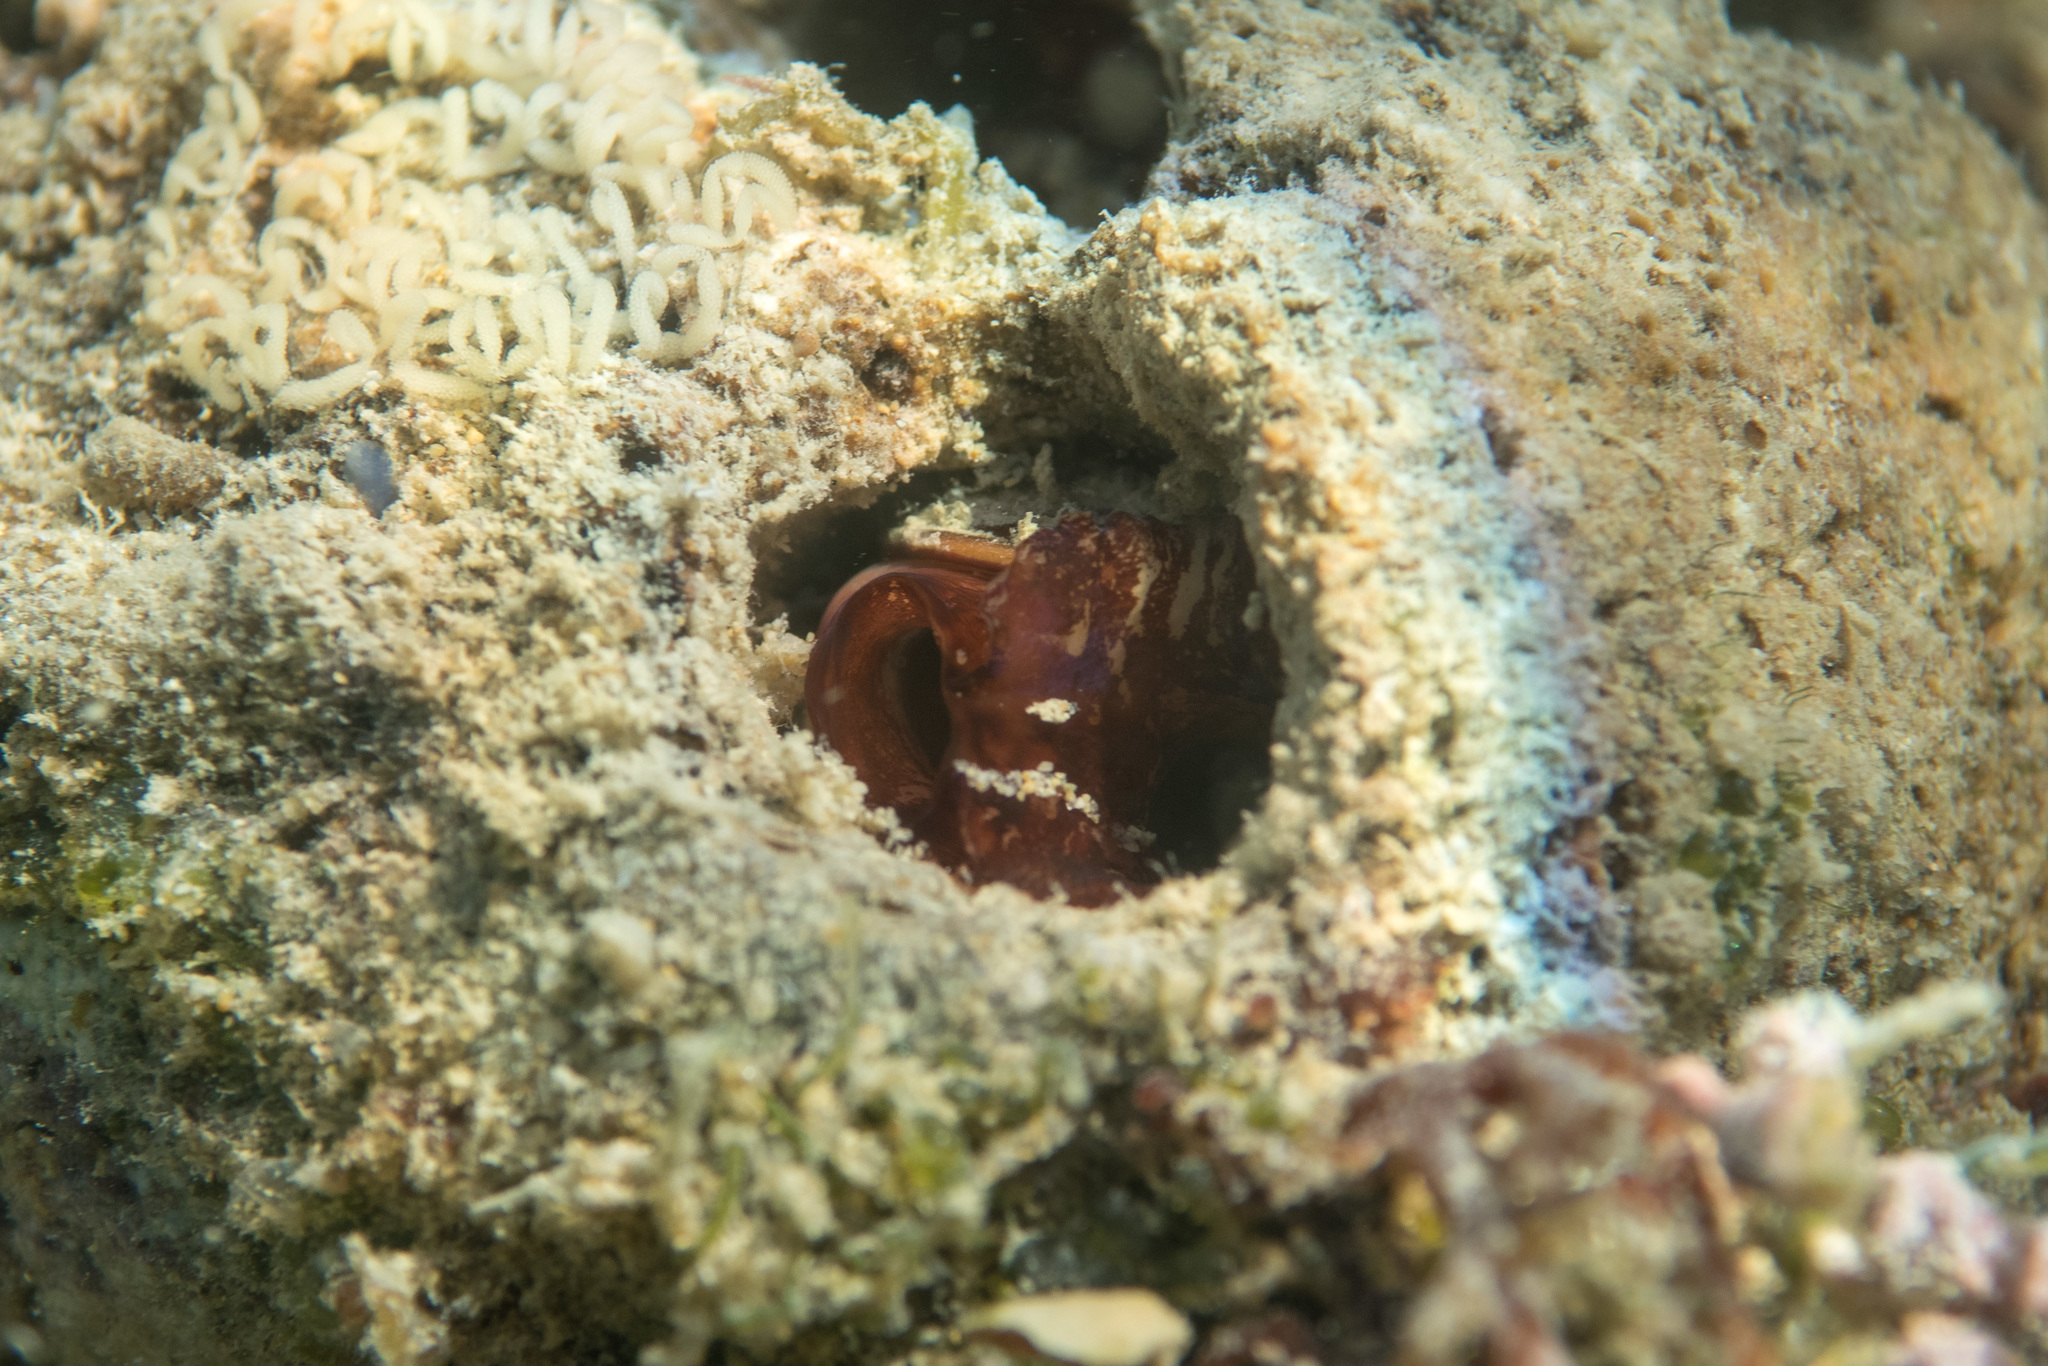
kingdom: Animalia
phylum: Mollusca
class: Bivalvia
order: Mytilida
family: Mytilidae
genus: Lithophaga
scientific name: Lithophaga lithophaga
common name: European date mussel
